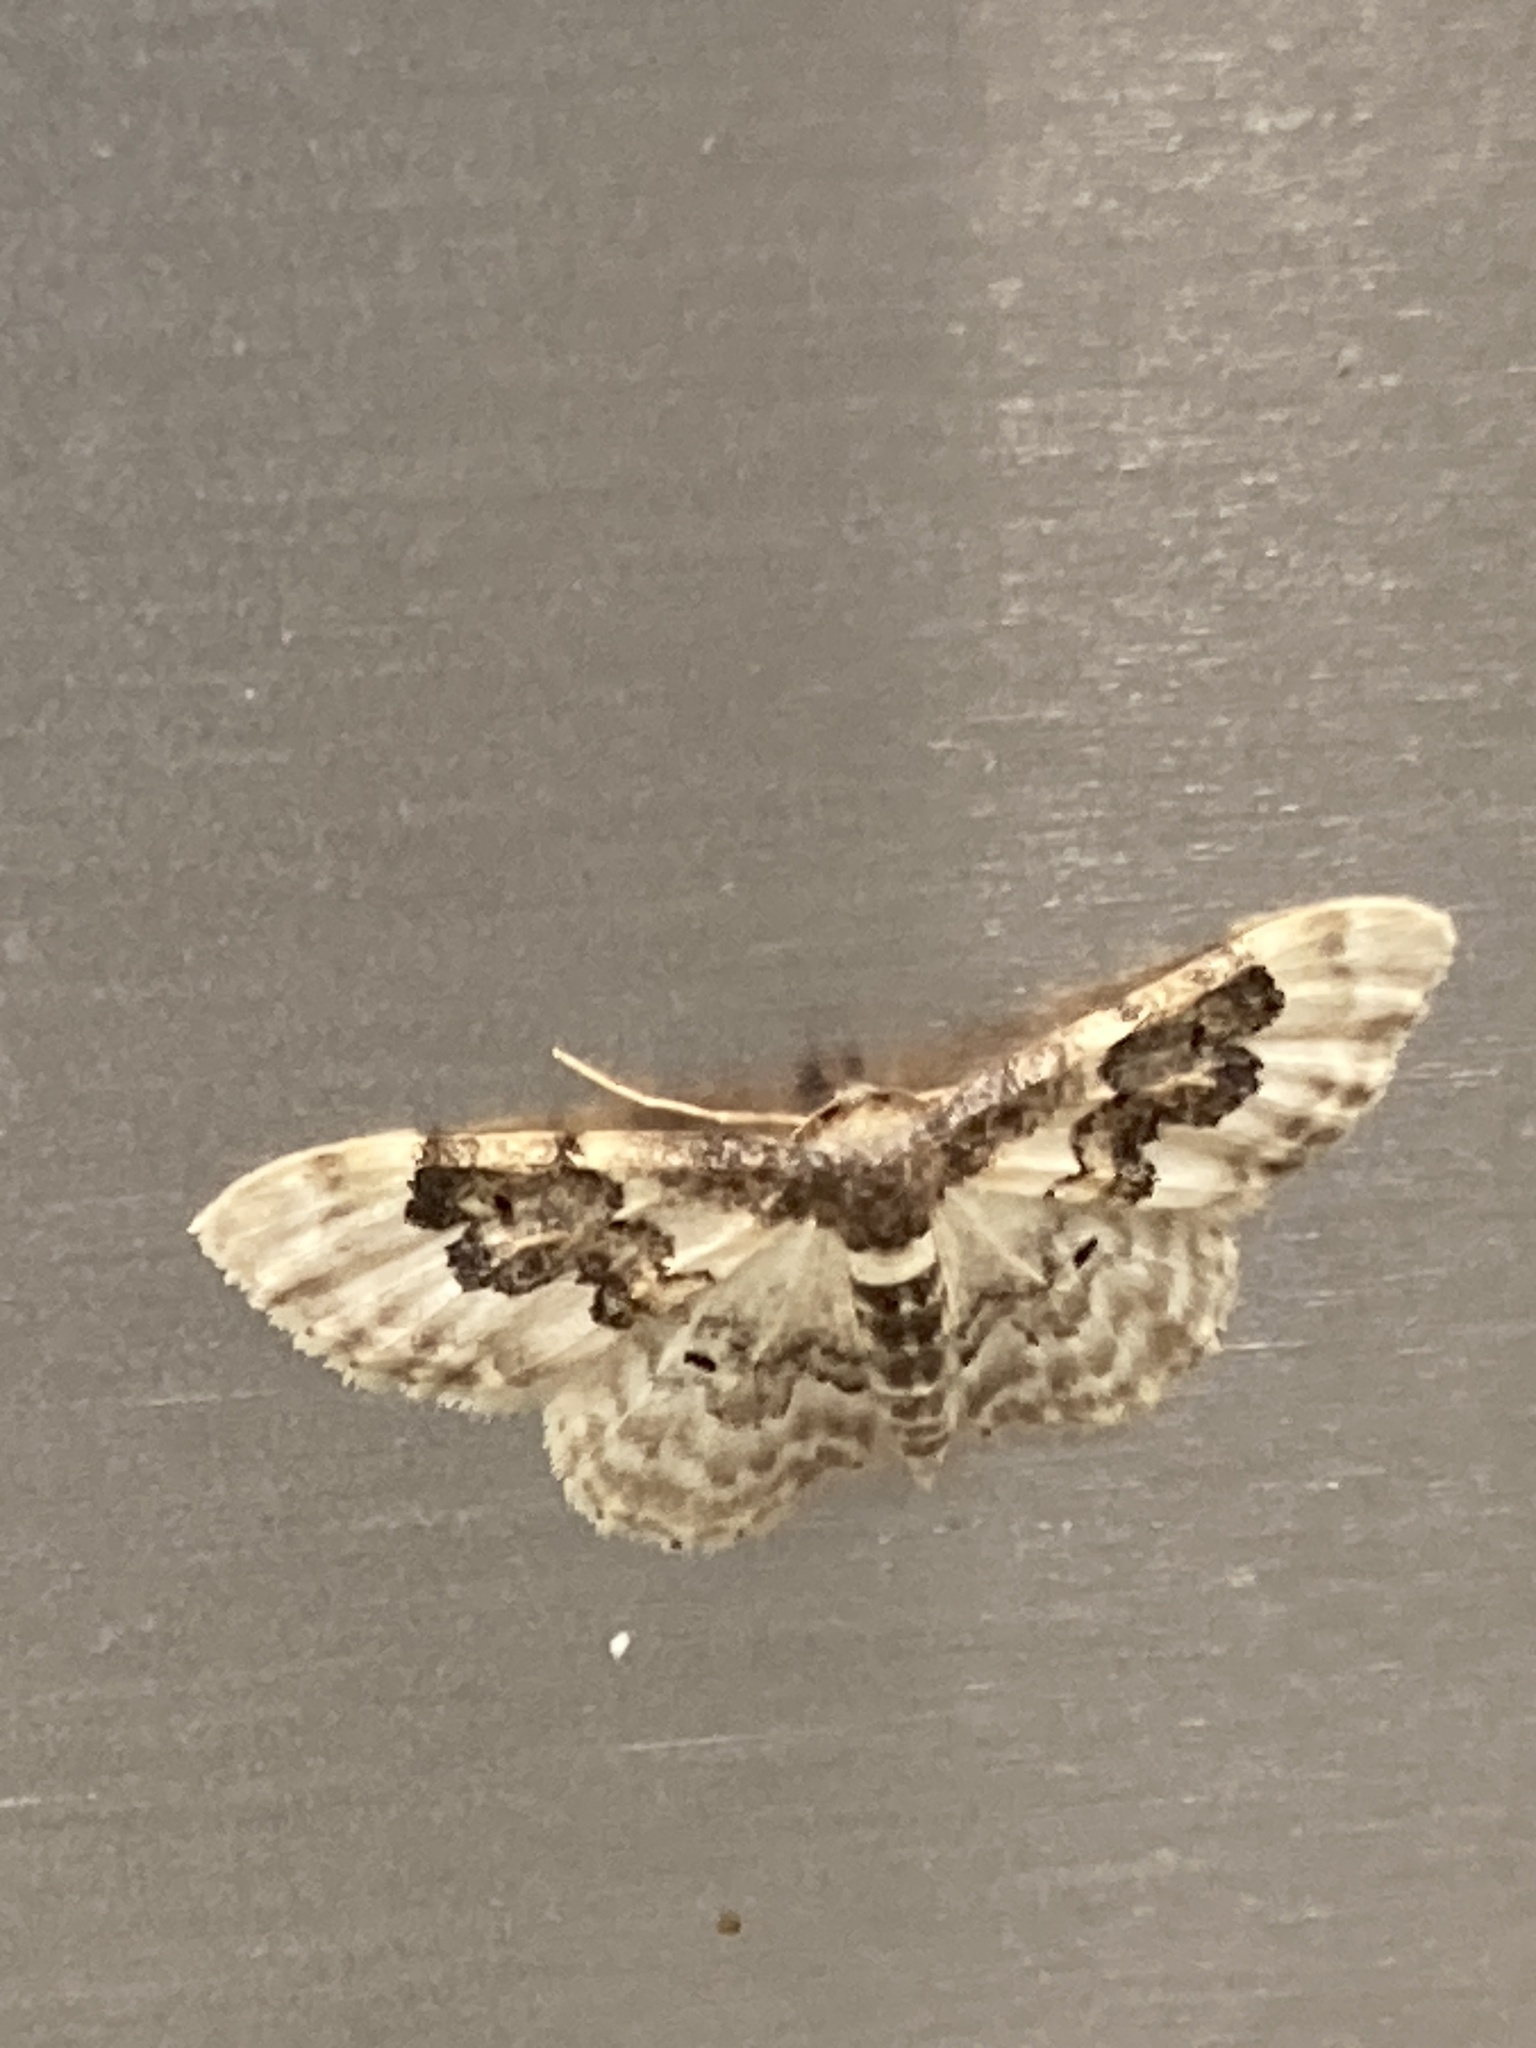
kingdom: Animalia
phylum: Arthropoda
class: Insecta
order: Lepidoptera
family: Geometridae
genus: Idaea
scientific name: Idaea rusticata
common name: Least carpet
